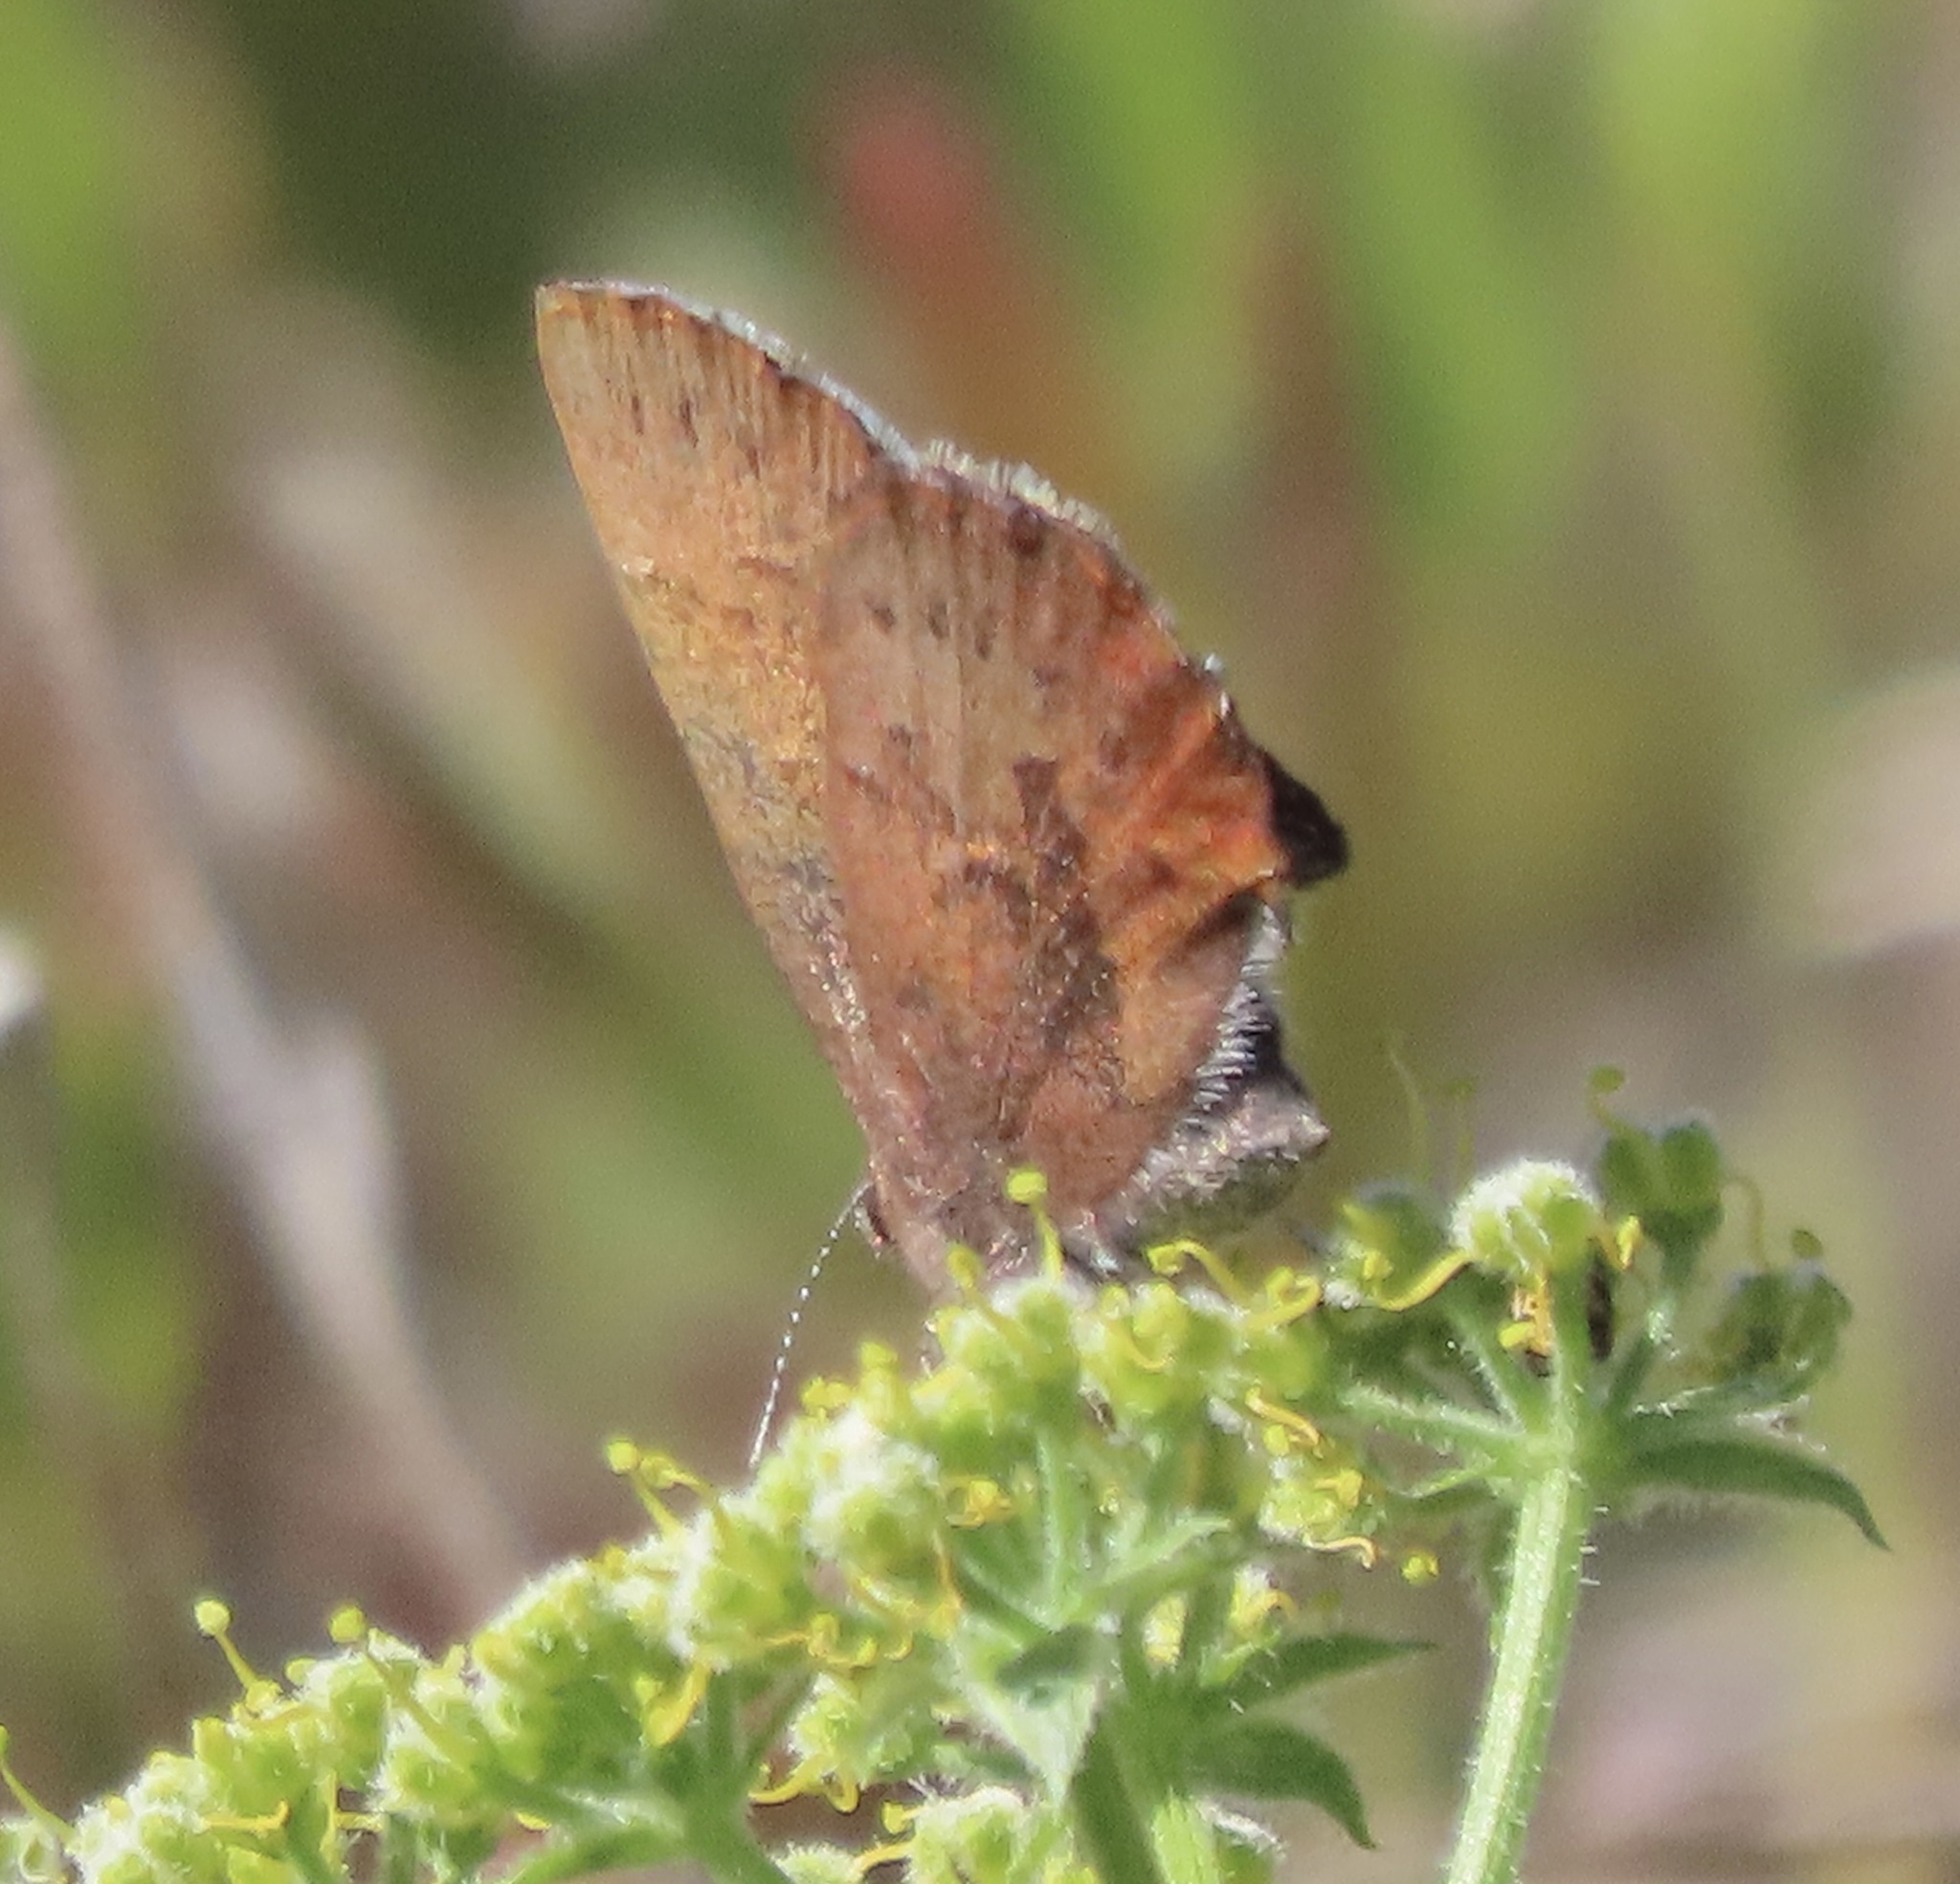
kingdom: Animalia
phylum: Arthropoda
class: Insecta
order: Lepidoptera
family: Lycaenidae
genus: Incisalia
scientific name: Incisalia irioides
